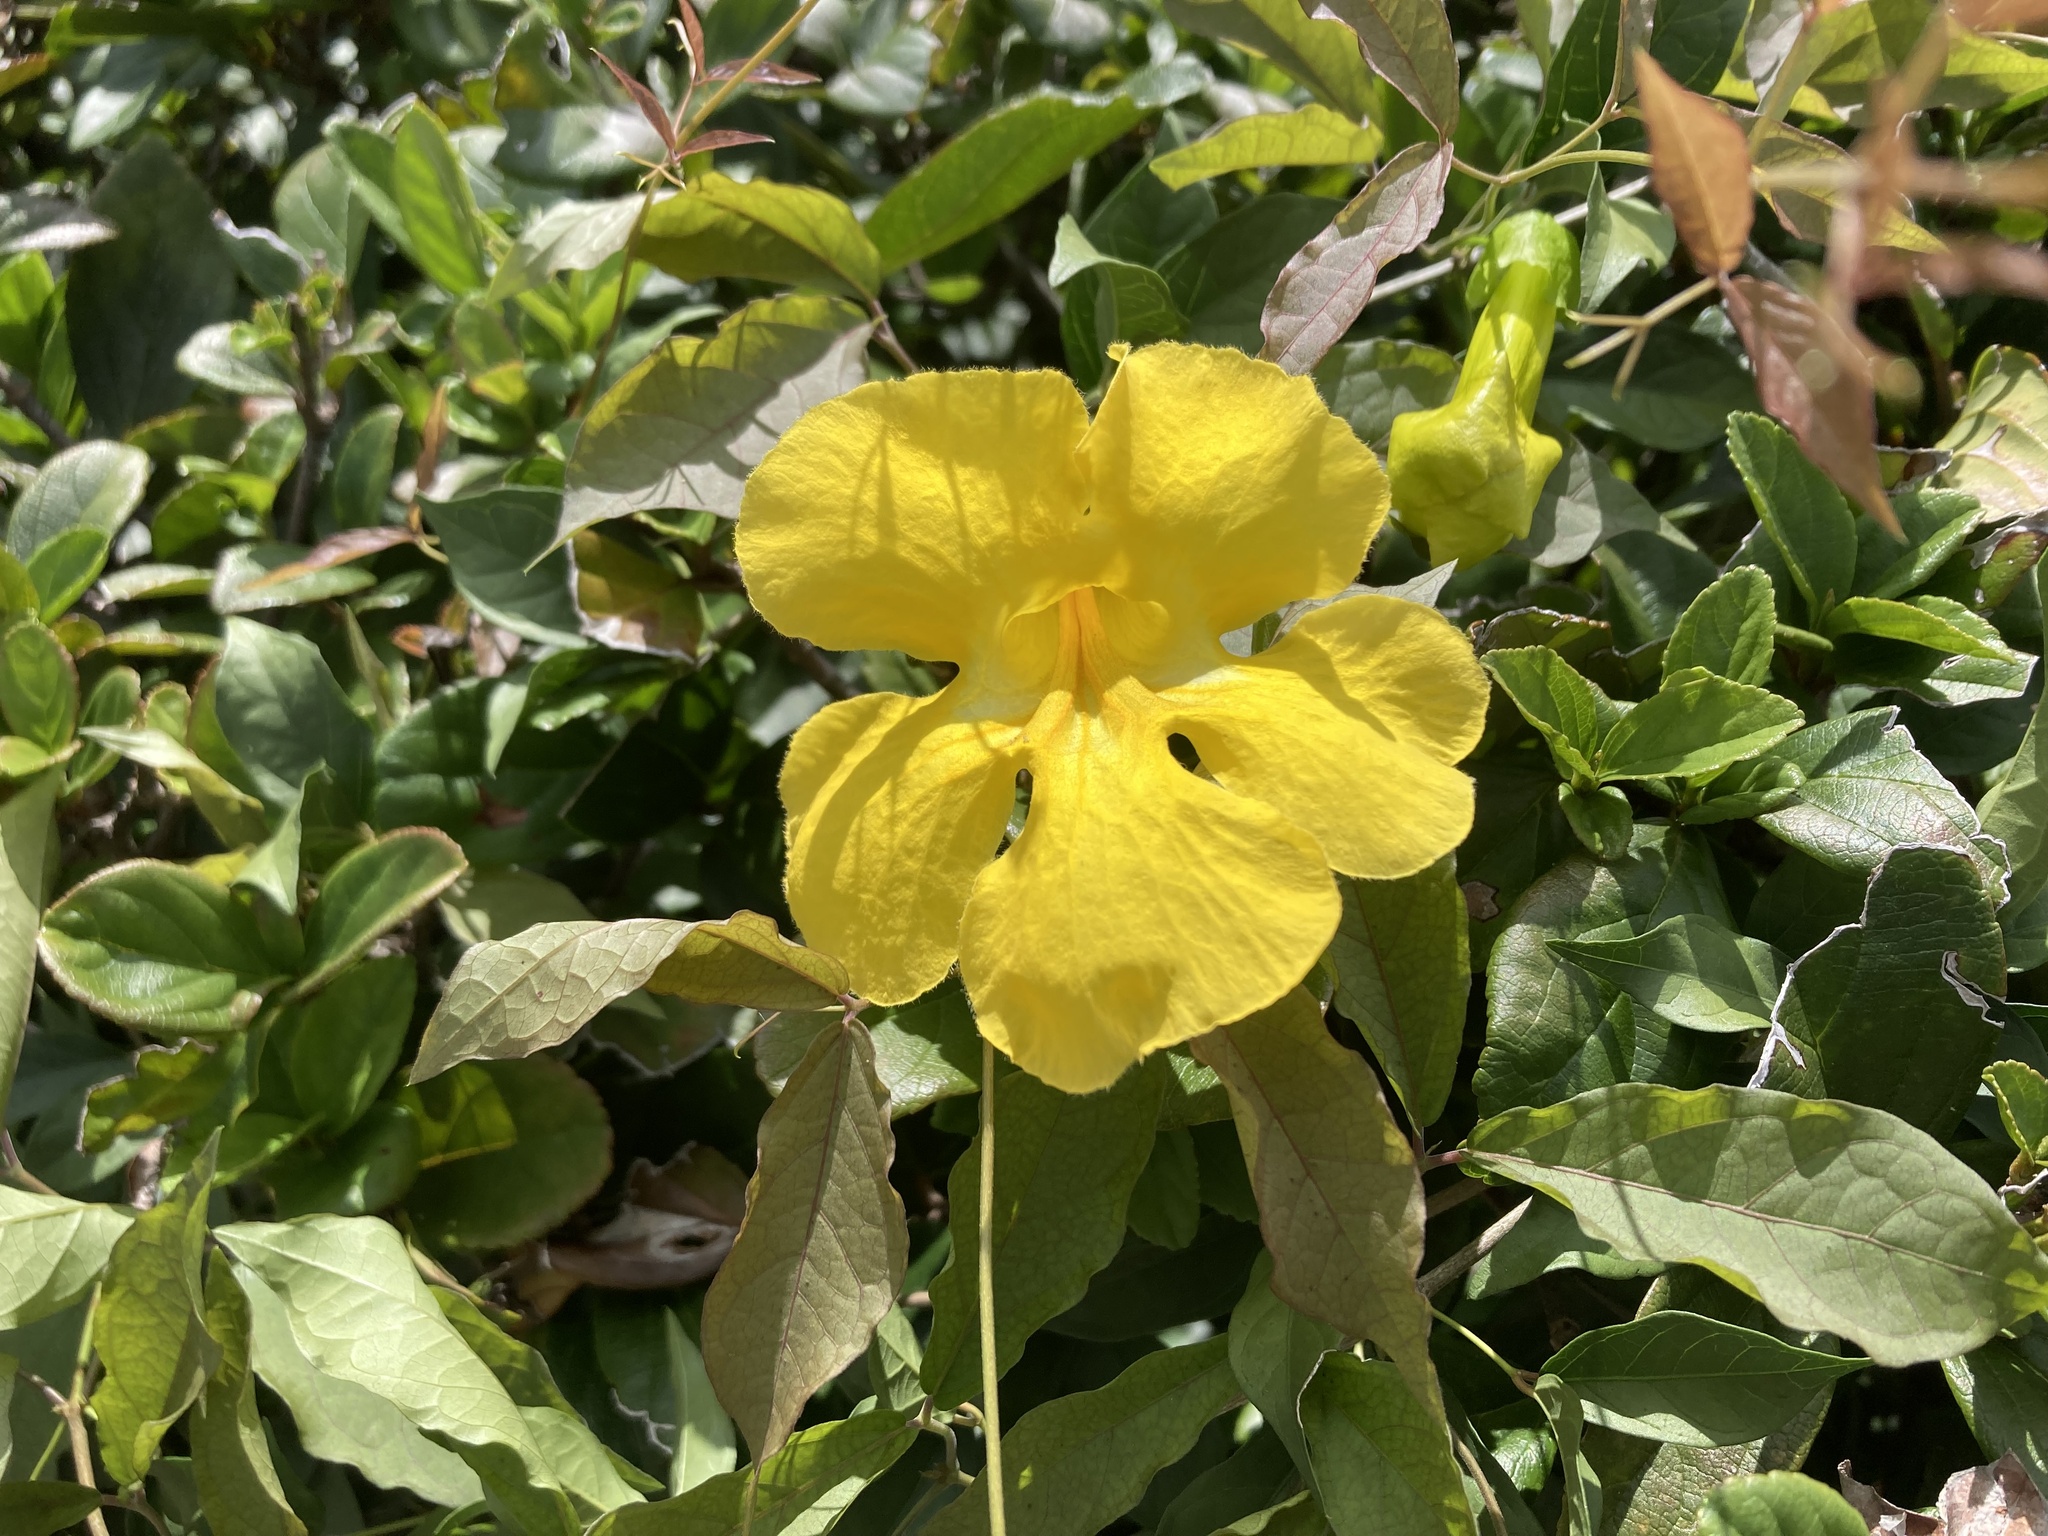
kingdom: Plantae
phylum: Tracheophyta
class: Magnoliopsida
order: Lamiales
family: Bignoniaceae
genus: Dolichandra
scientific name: Dolichandra unguis-cati
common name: Catclaw vine
